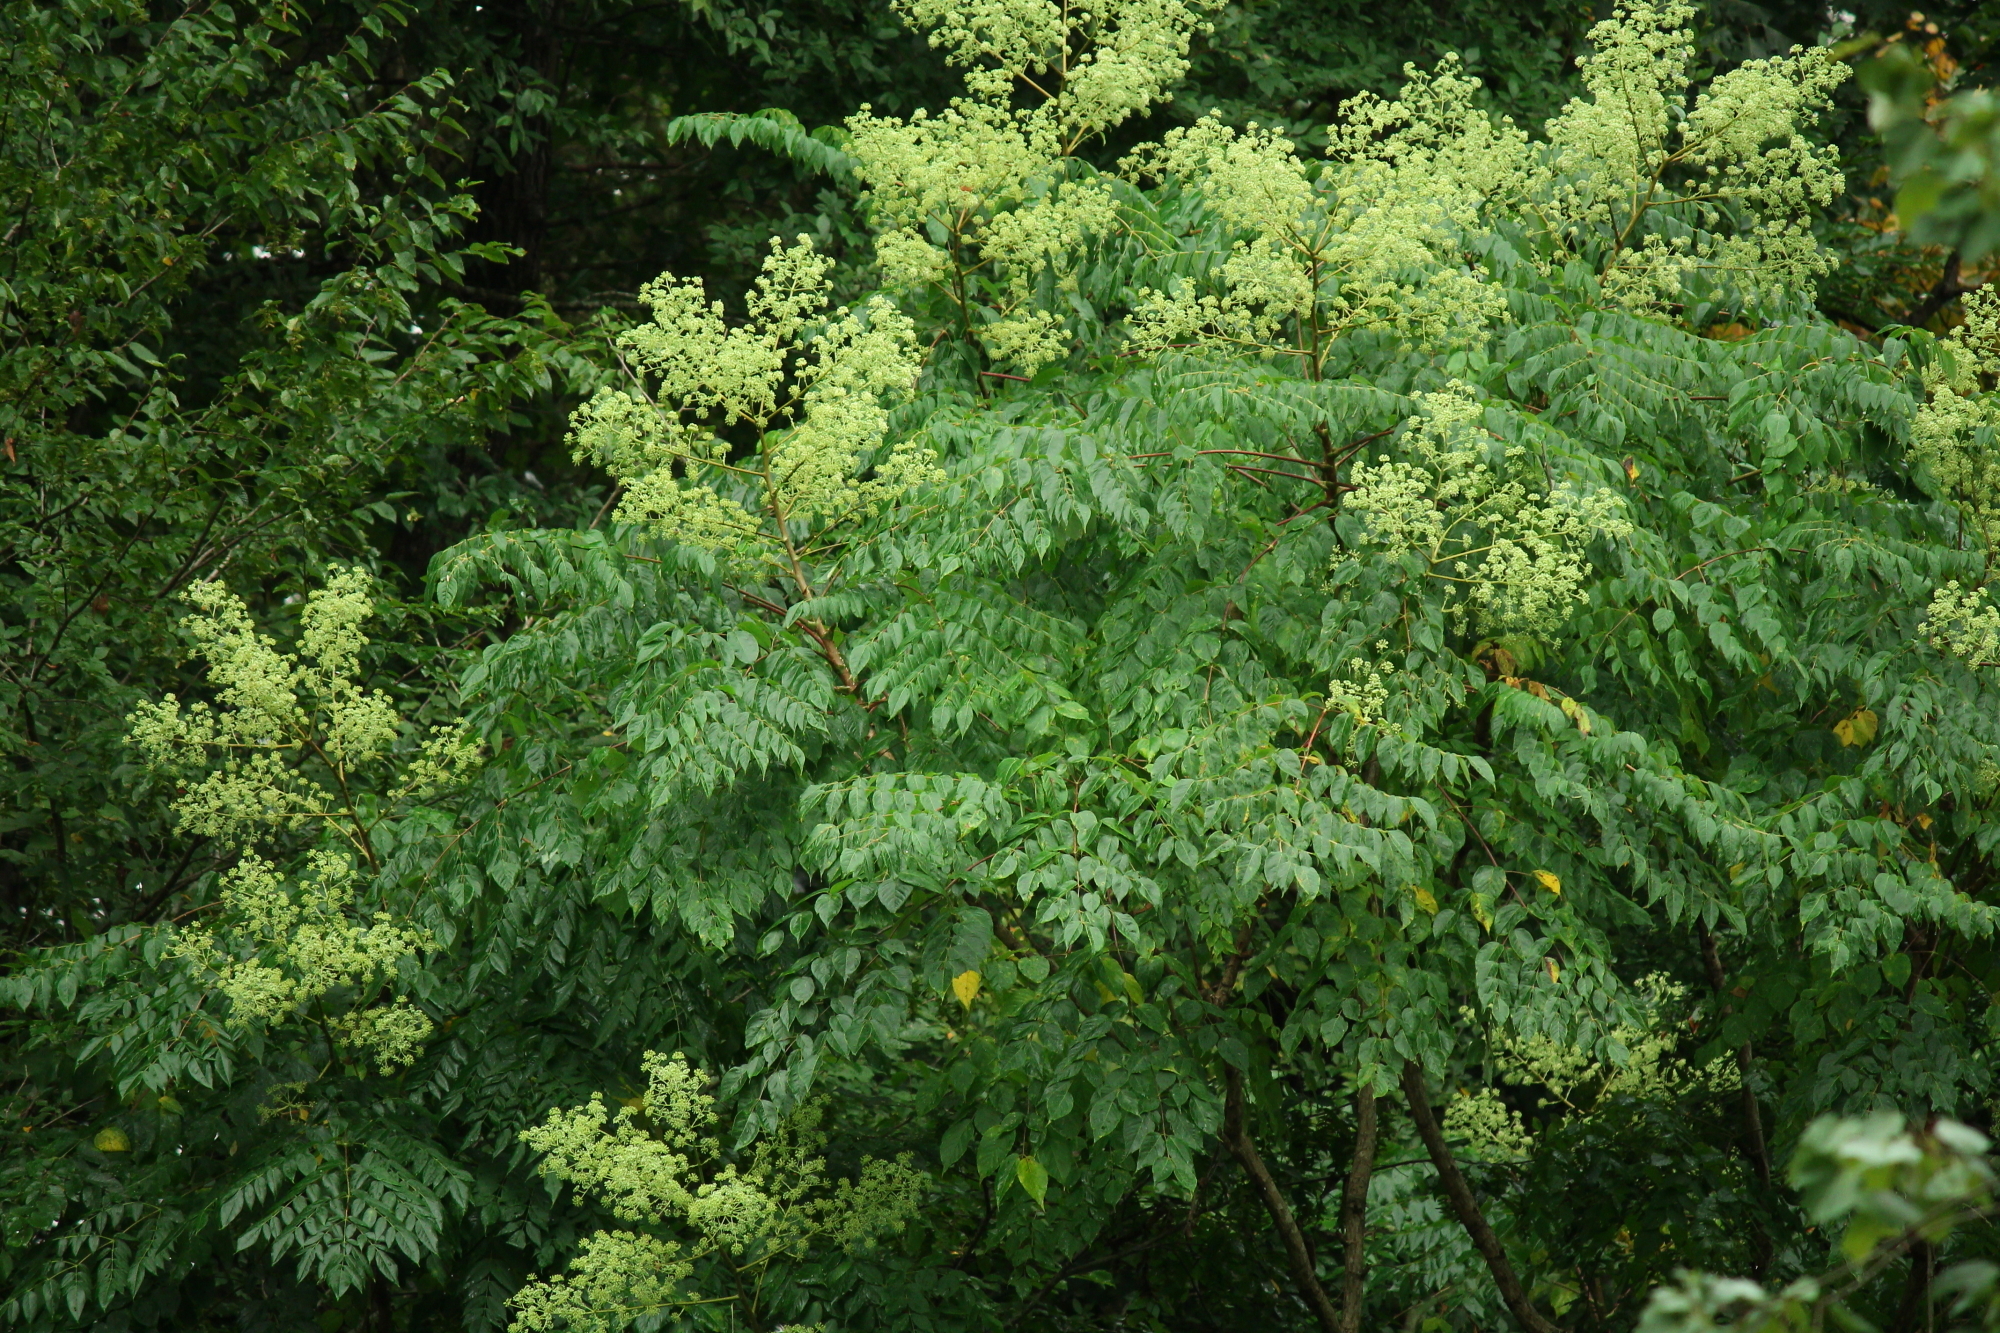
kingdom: Plantae
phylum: Tracheophyta
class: Magnoliopsida
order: Apiales
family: Araliaceae
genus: Aralia
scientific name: Aralia spinosa
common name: Hercules'-club
